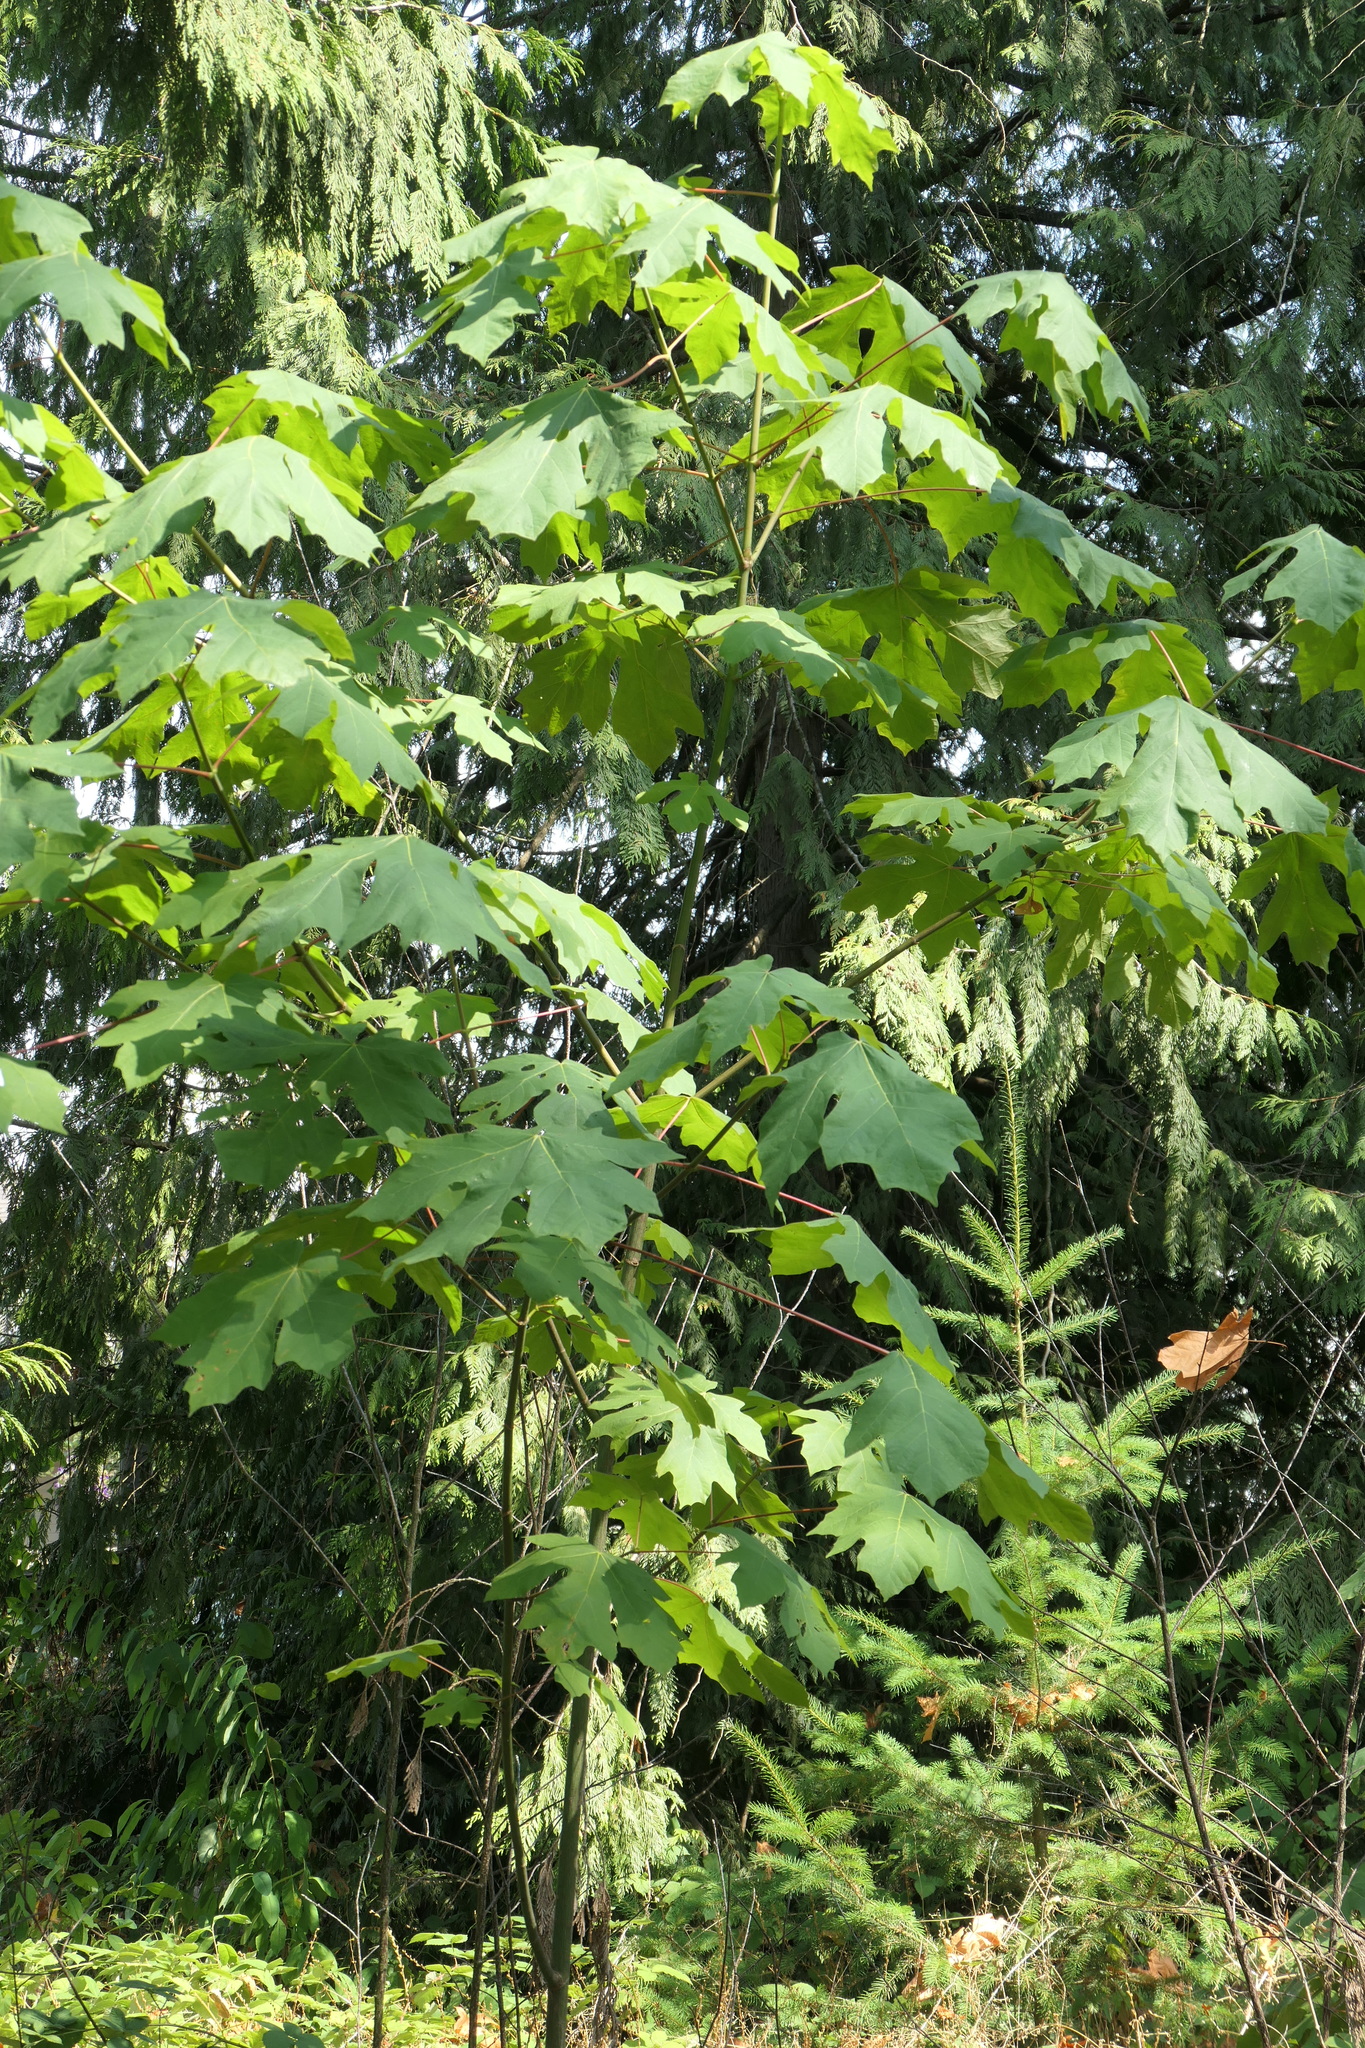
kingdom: Plantae
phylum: Tracheophyta
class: Magnoliopsida
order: Sapindales
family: Sapindaceae
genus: Acer
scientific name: Acer macrophyllum
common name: Oregon maple
